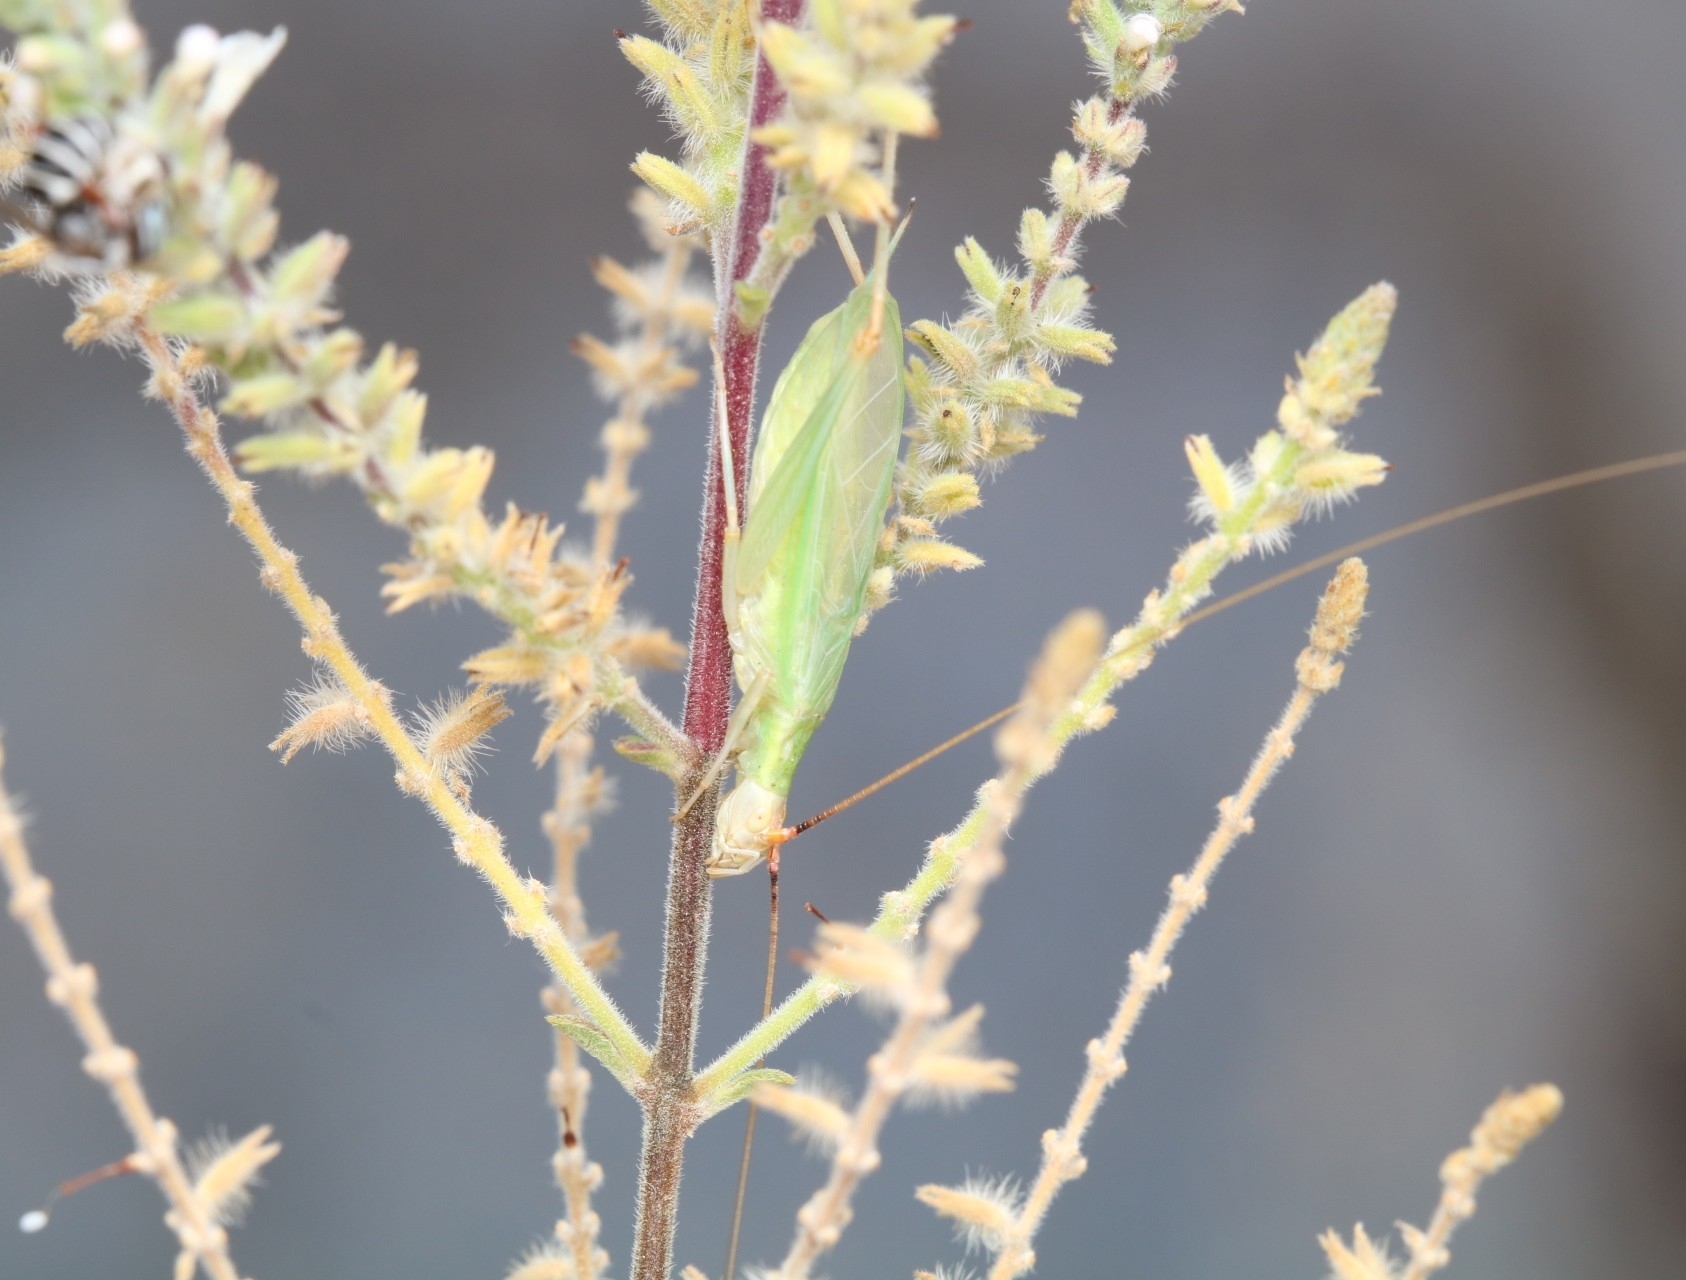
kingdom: Animalia
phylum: Arthropoda
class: Insecta
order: Orthoptera
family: Gryllidae
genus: Oecanthus
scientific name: Oecanthus texensis
